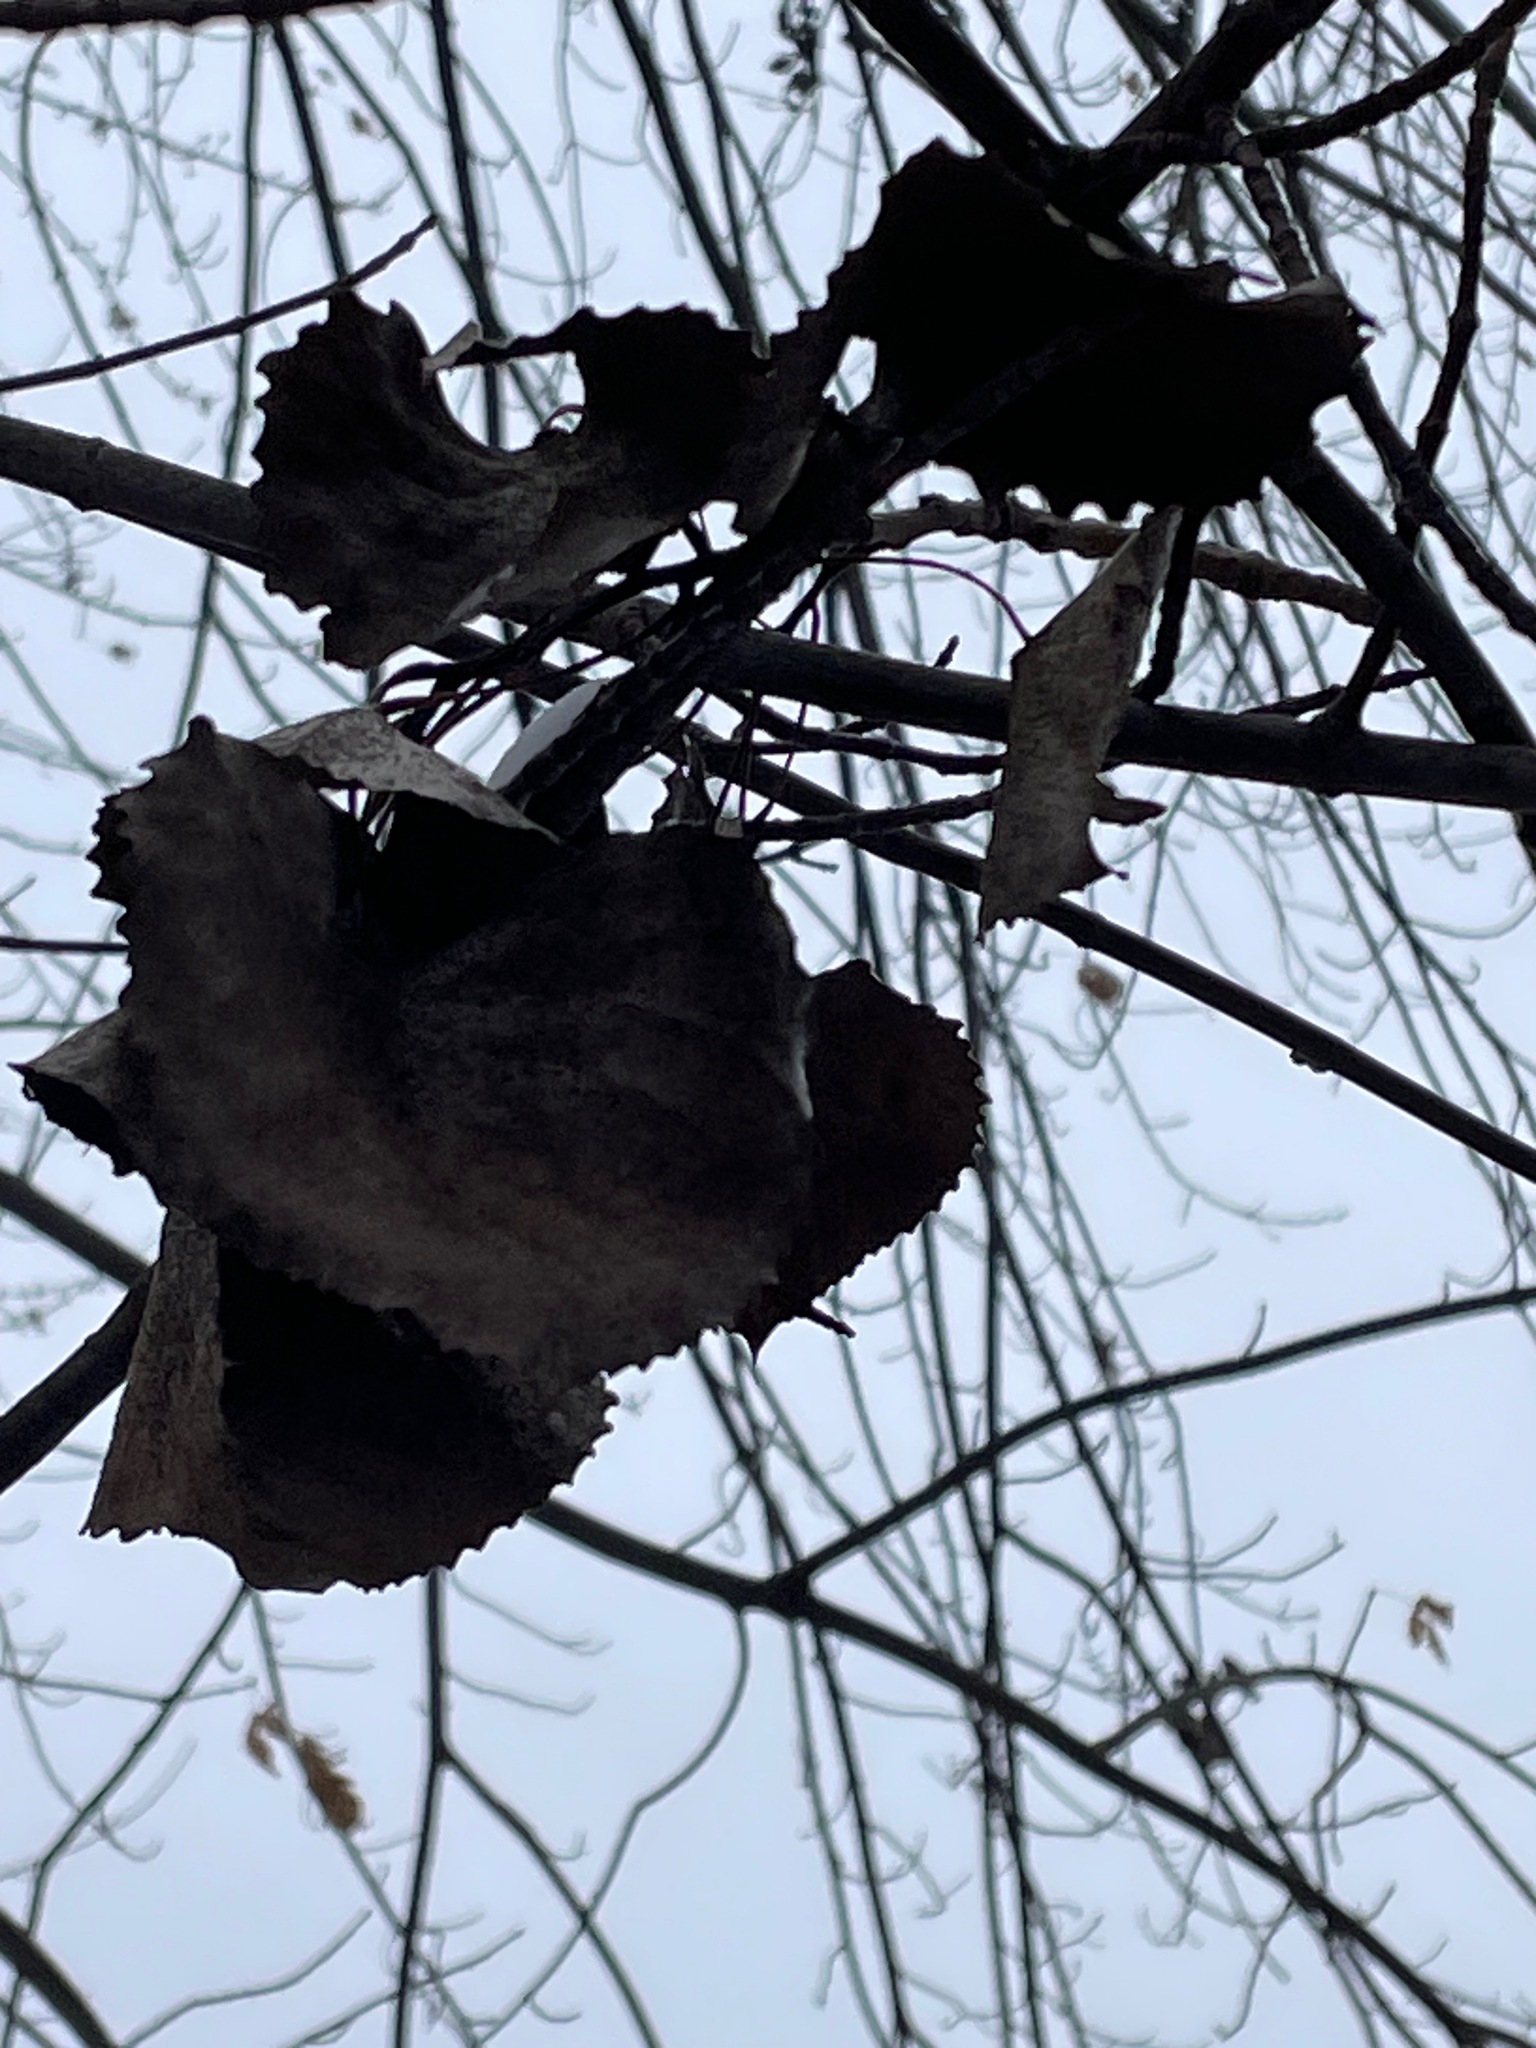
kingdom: Plantae
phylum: Tracheophyta
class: Magnoliopsida
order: Malpighiales
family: Salicaceae
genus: Populus
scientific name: Populus deltoides
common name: Eastern cottonwood
